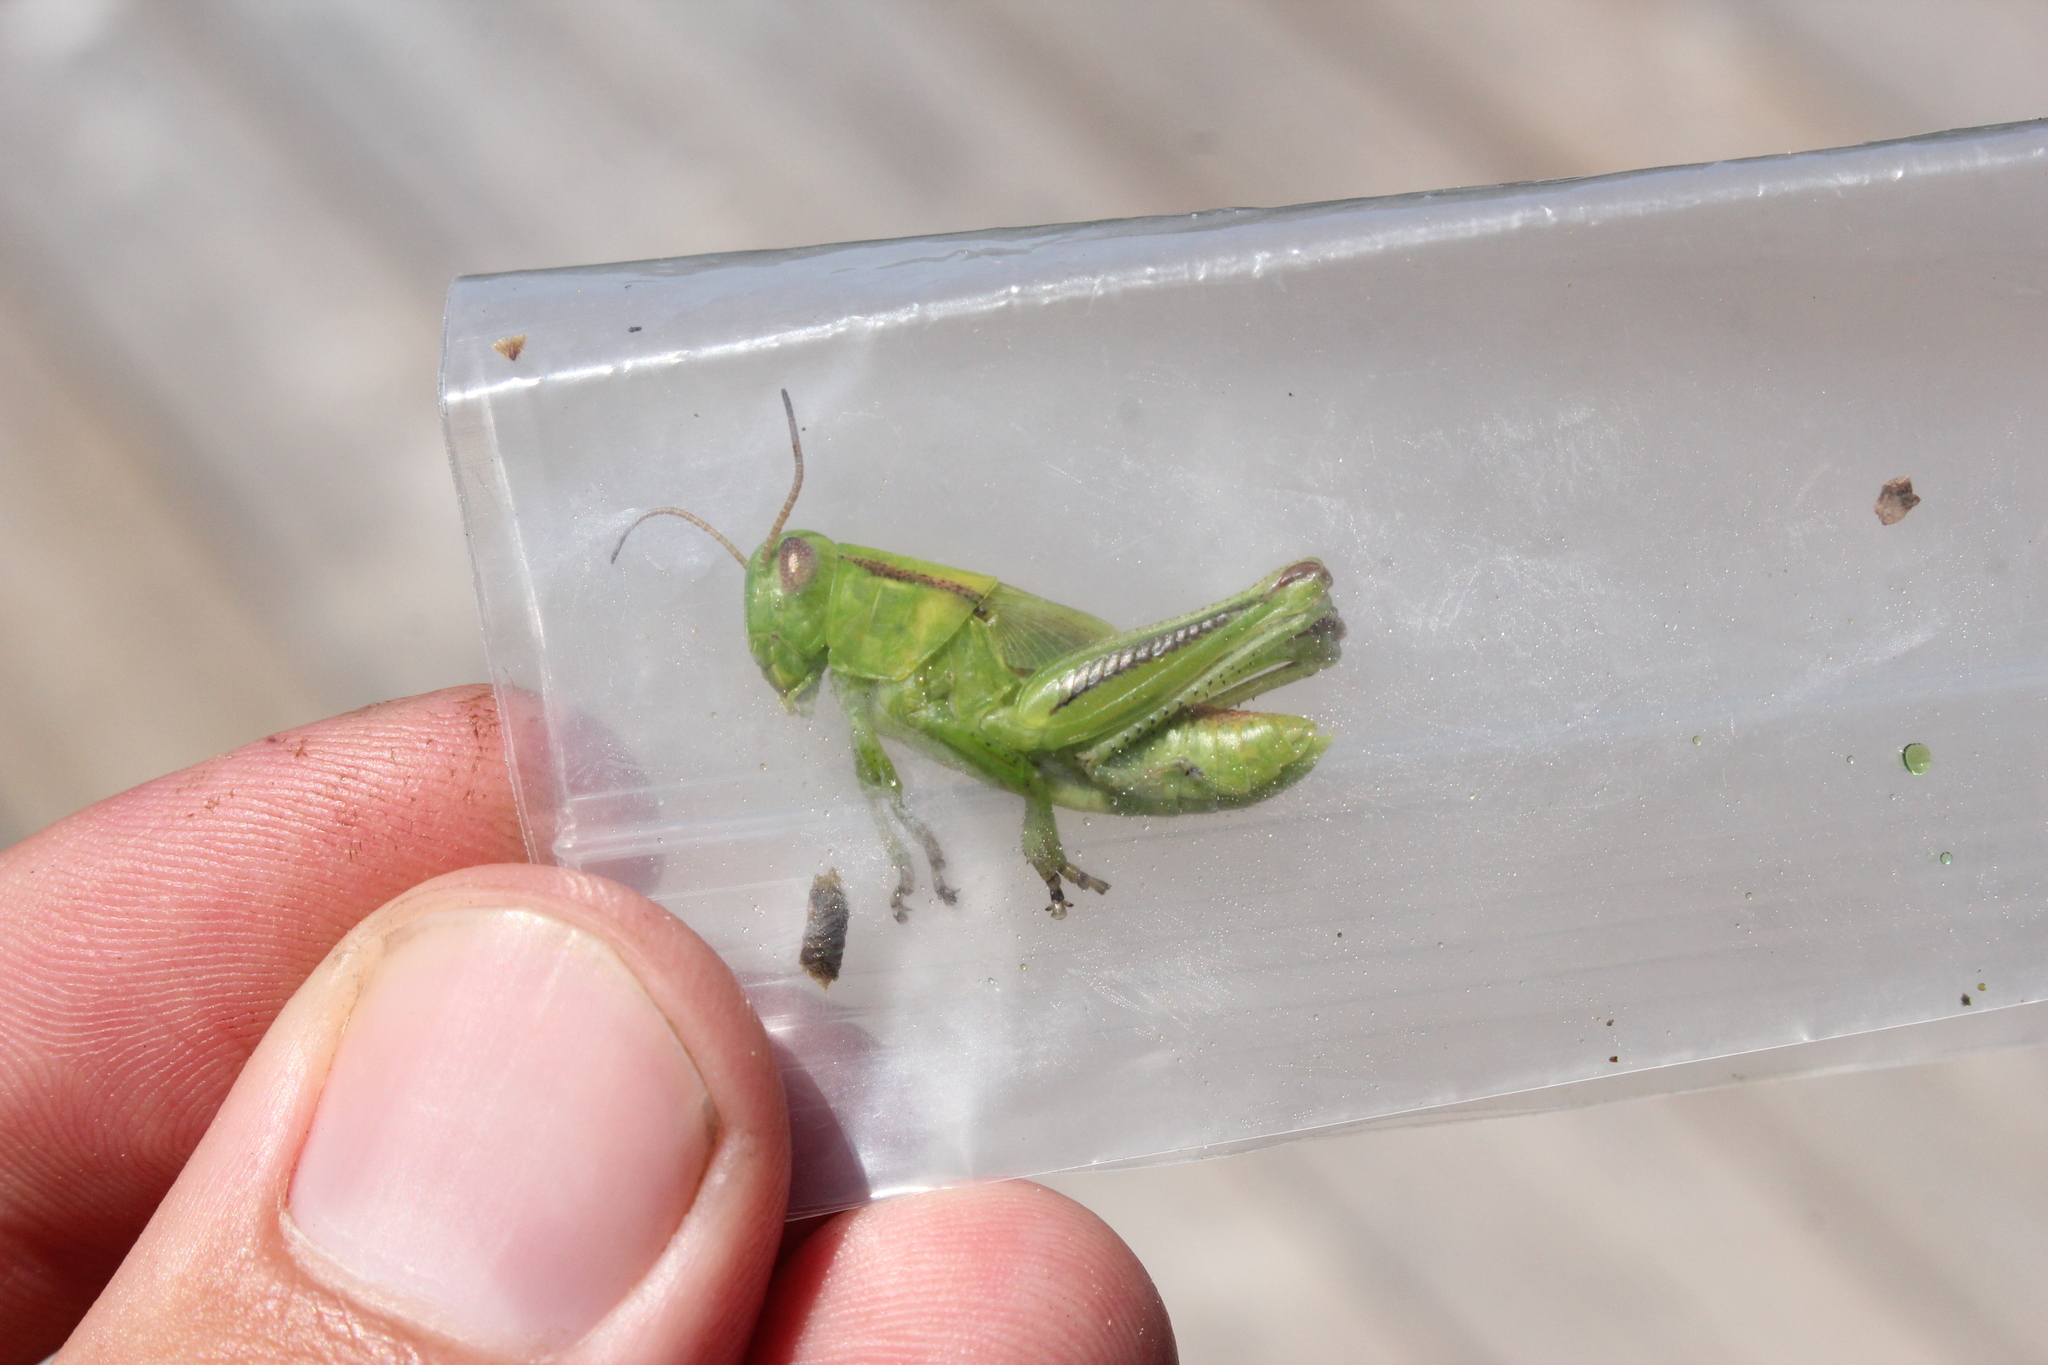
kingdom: Animalia
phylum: Arthropoda
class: Insecta
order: Orthoptera
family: Acrididae
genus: Melanoplus
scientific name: Melanoplus bivittatus
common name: Two-striped grasshopper
